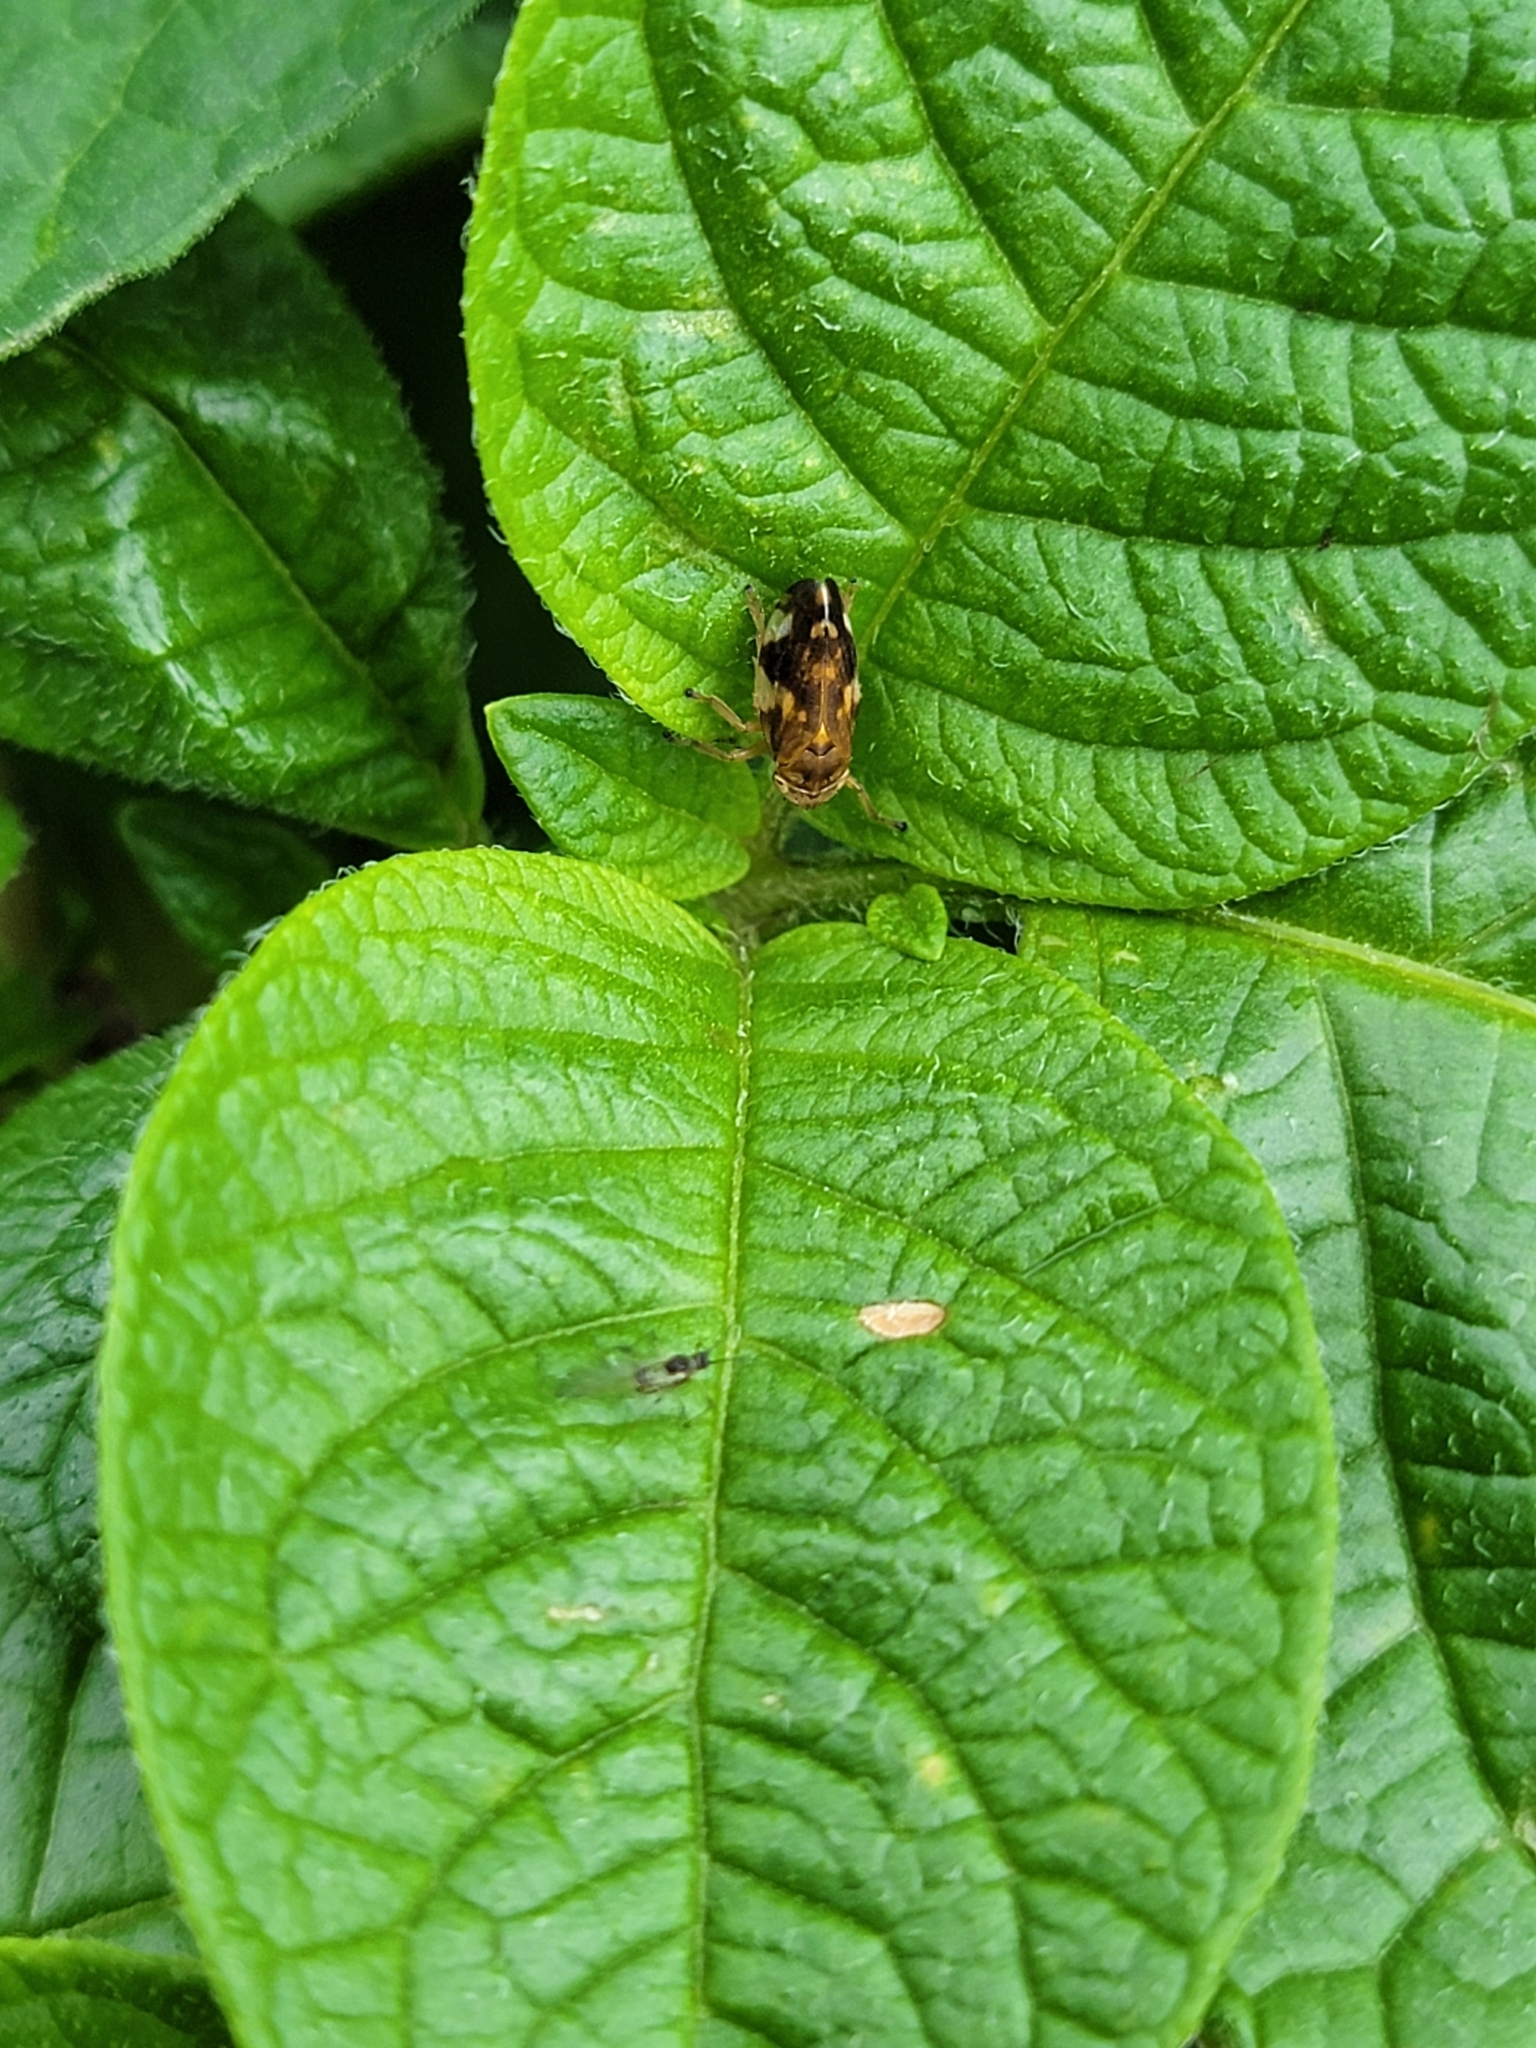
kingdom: Animalia
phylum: Arthropoda
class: Insecta
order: Hemiptera
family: Aphrophoridae
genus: Philaenus
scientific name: Philaenus spumarius
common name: Meadow spittlebug
